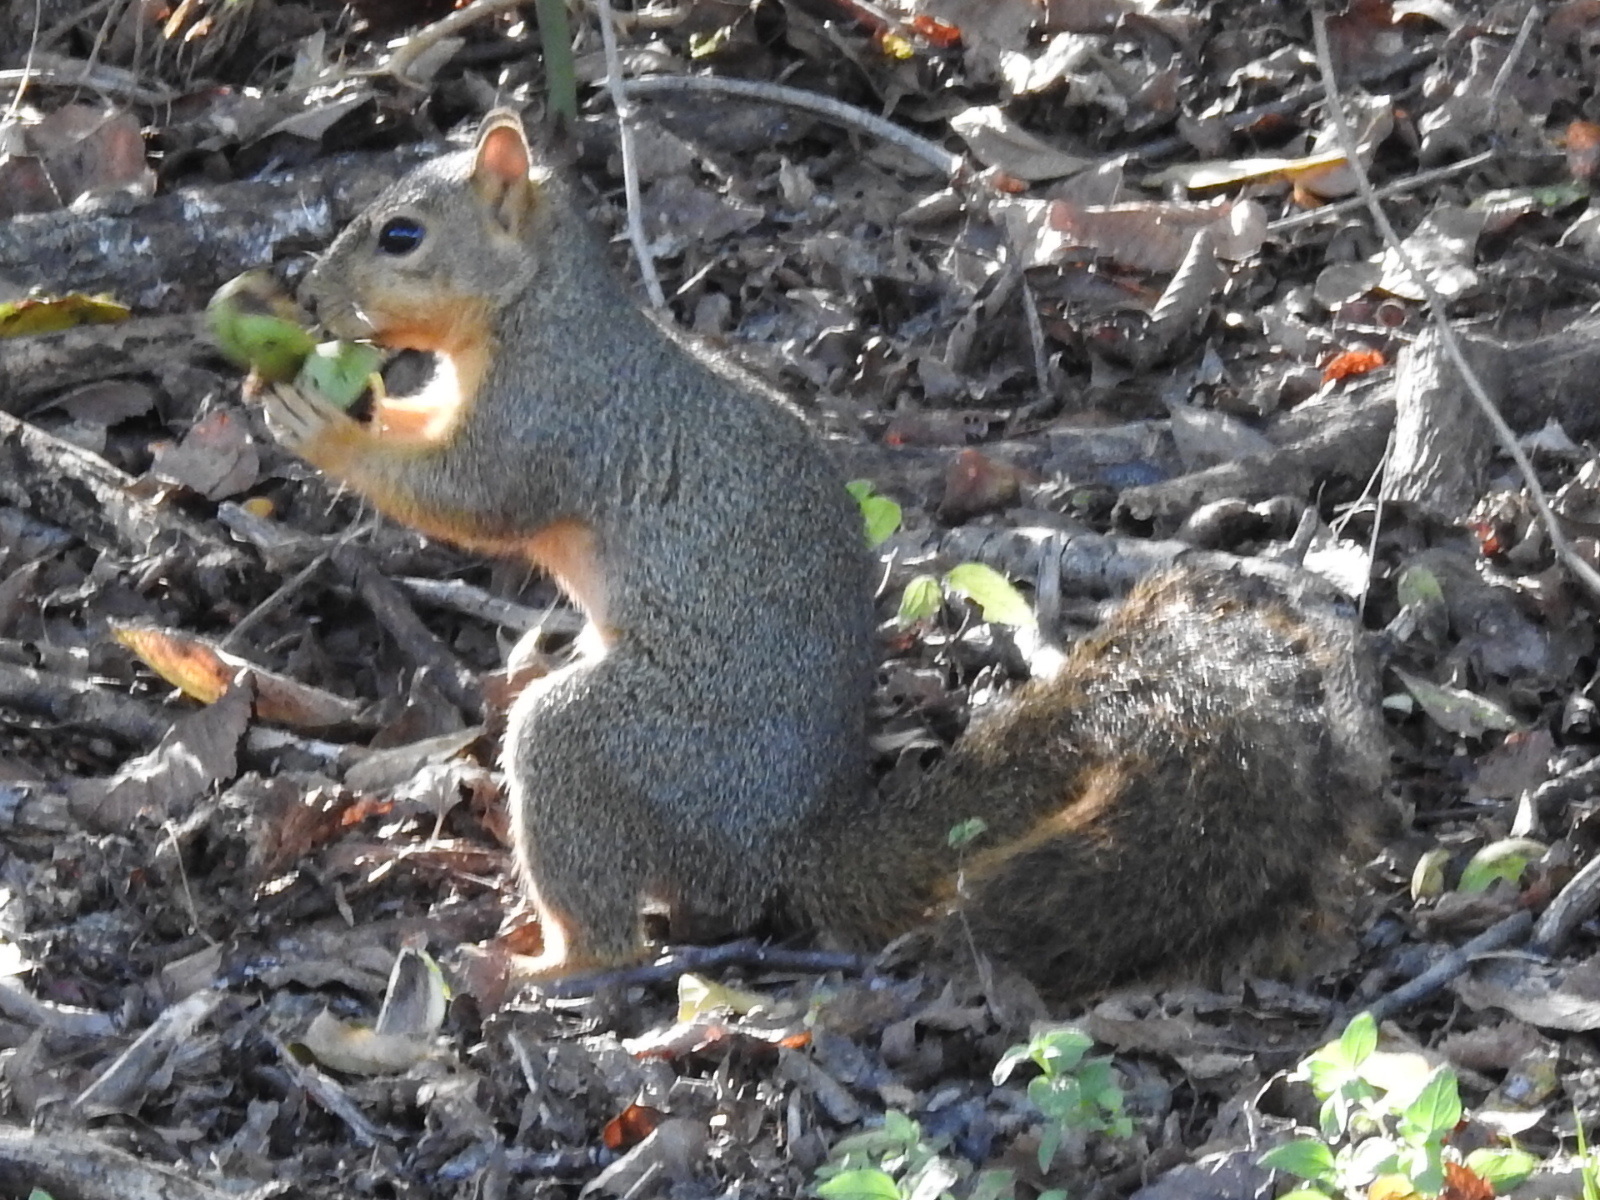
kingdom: Animalia
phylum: Chordata
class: Mammalia
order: Rodentia
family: Sciuridae
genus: Sciurus
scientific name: Sciurus niger
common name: Fox squirrel
